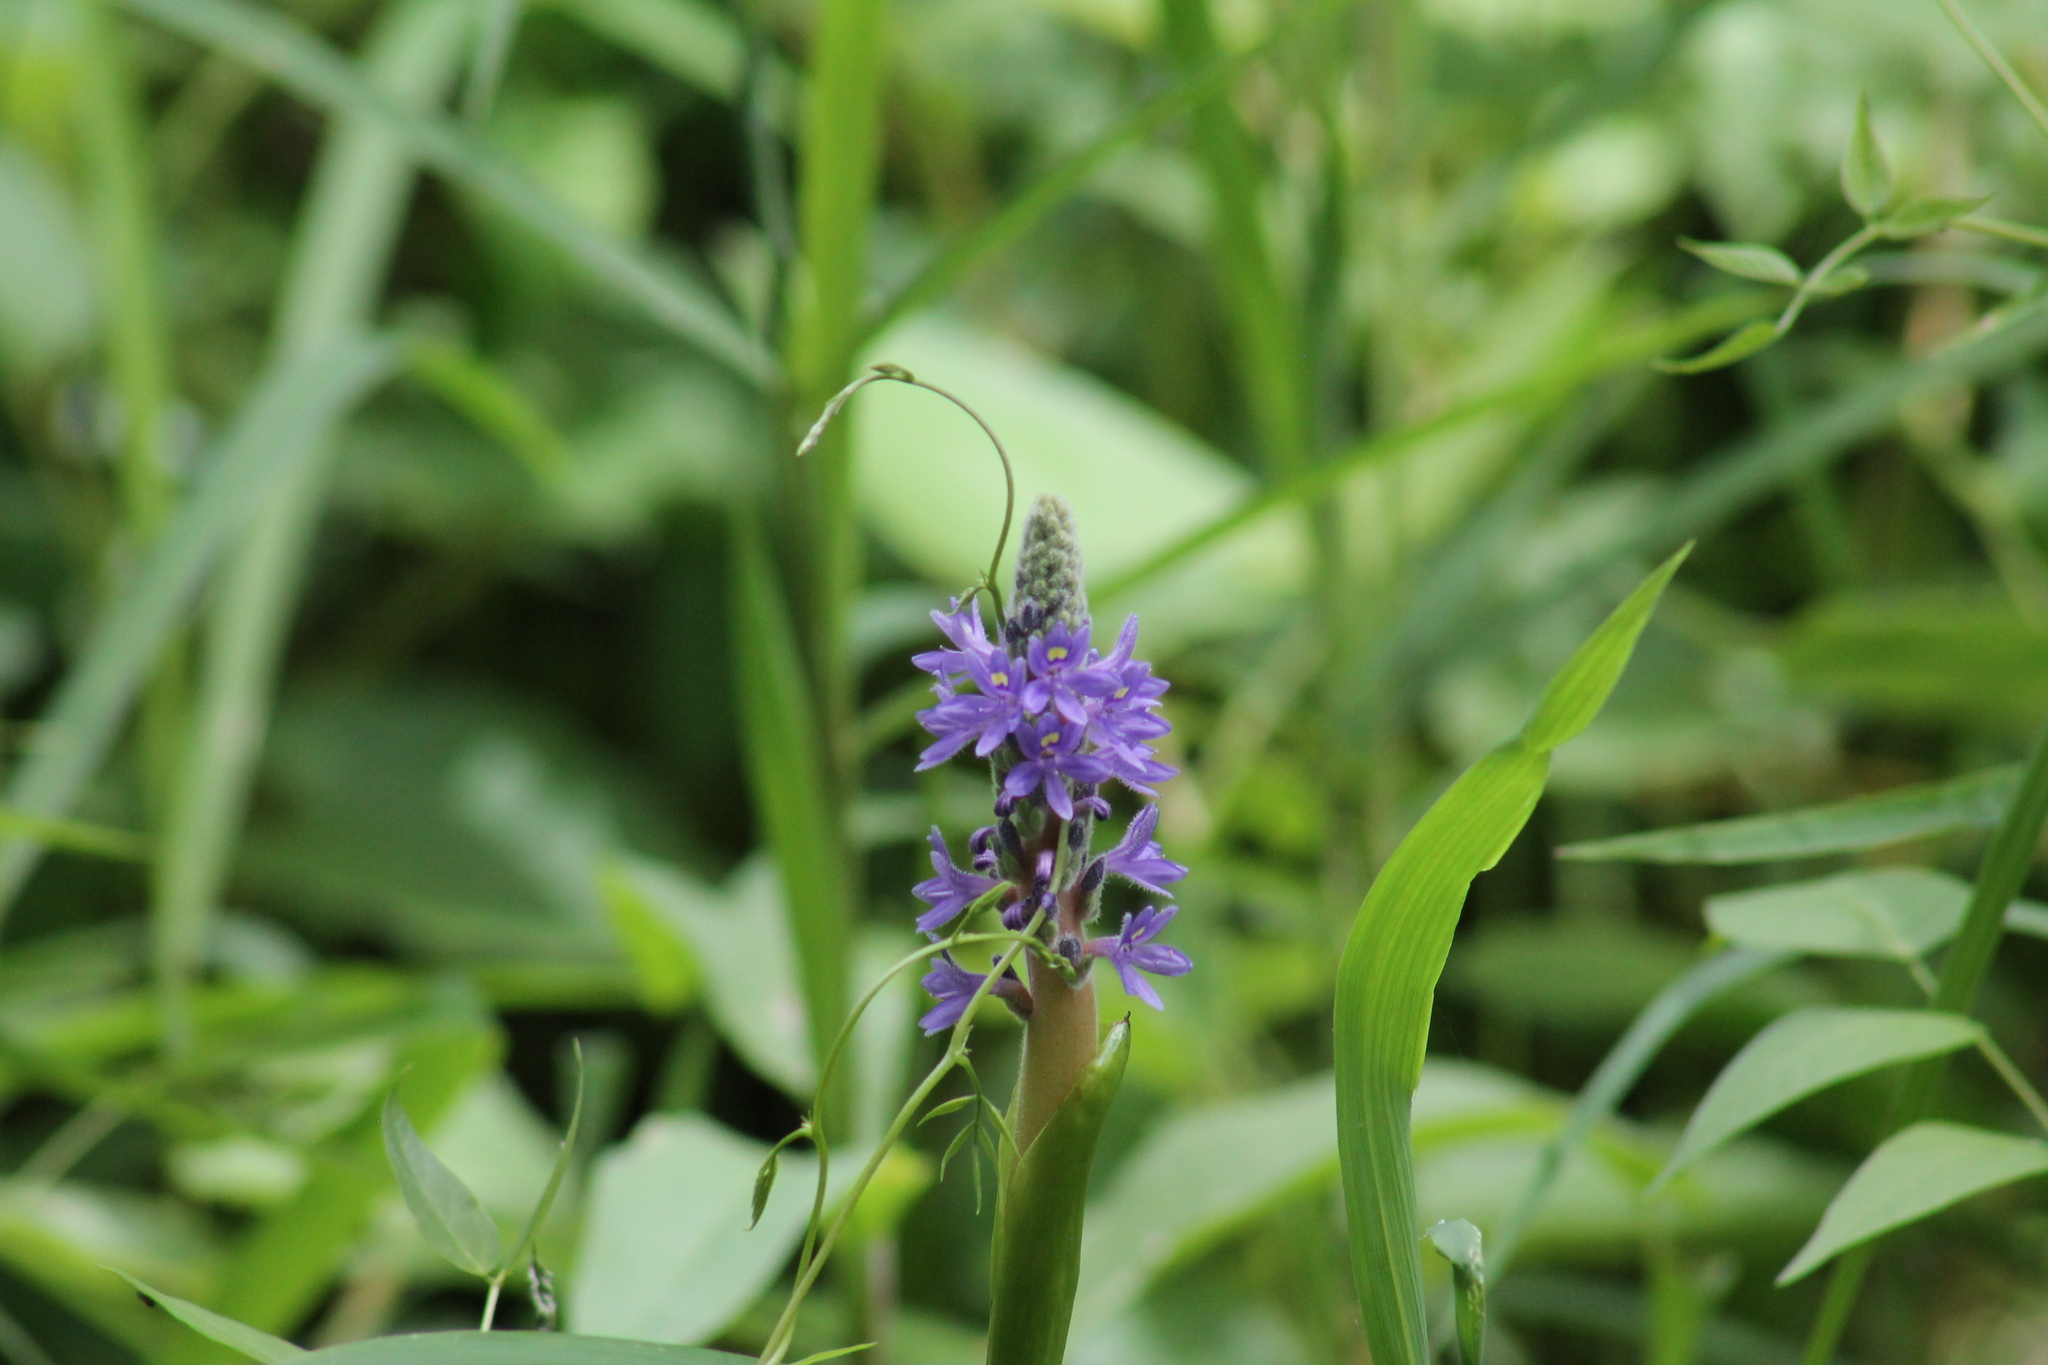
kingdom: Plantae
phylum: Tracheophyta
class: Liliopsida
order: Commelinales
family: Pontederiaceae
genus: Pontederia
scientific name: Pontederia cordata
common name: Pickerelweed
